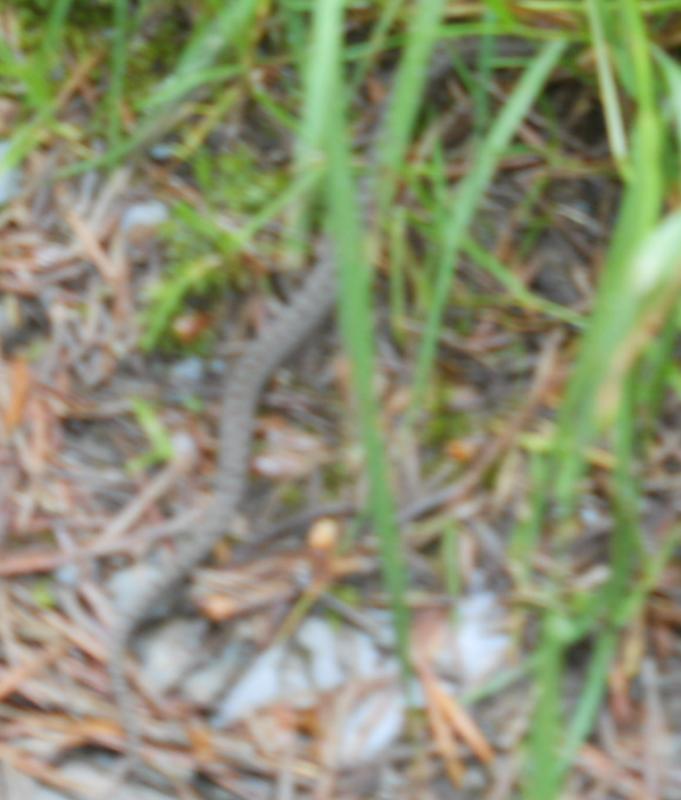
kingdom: Animalia
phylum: Chordata
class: Squamata
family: Colubridae
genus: Coronella
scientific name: Coronella austriaca
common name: Smooth snake
